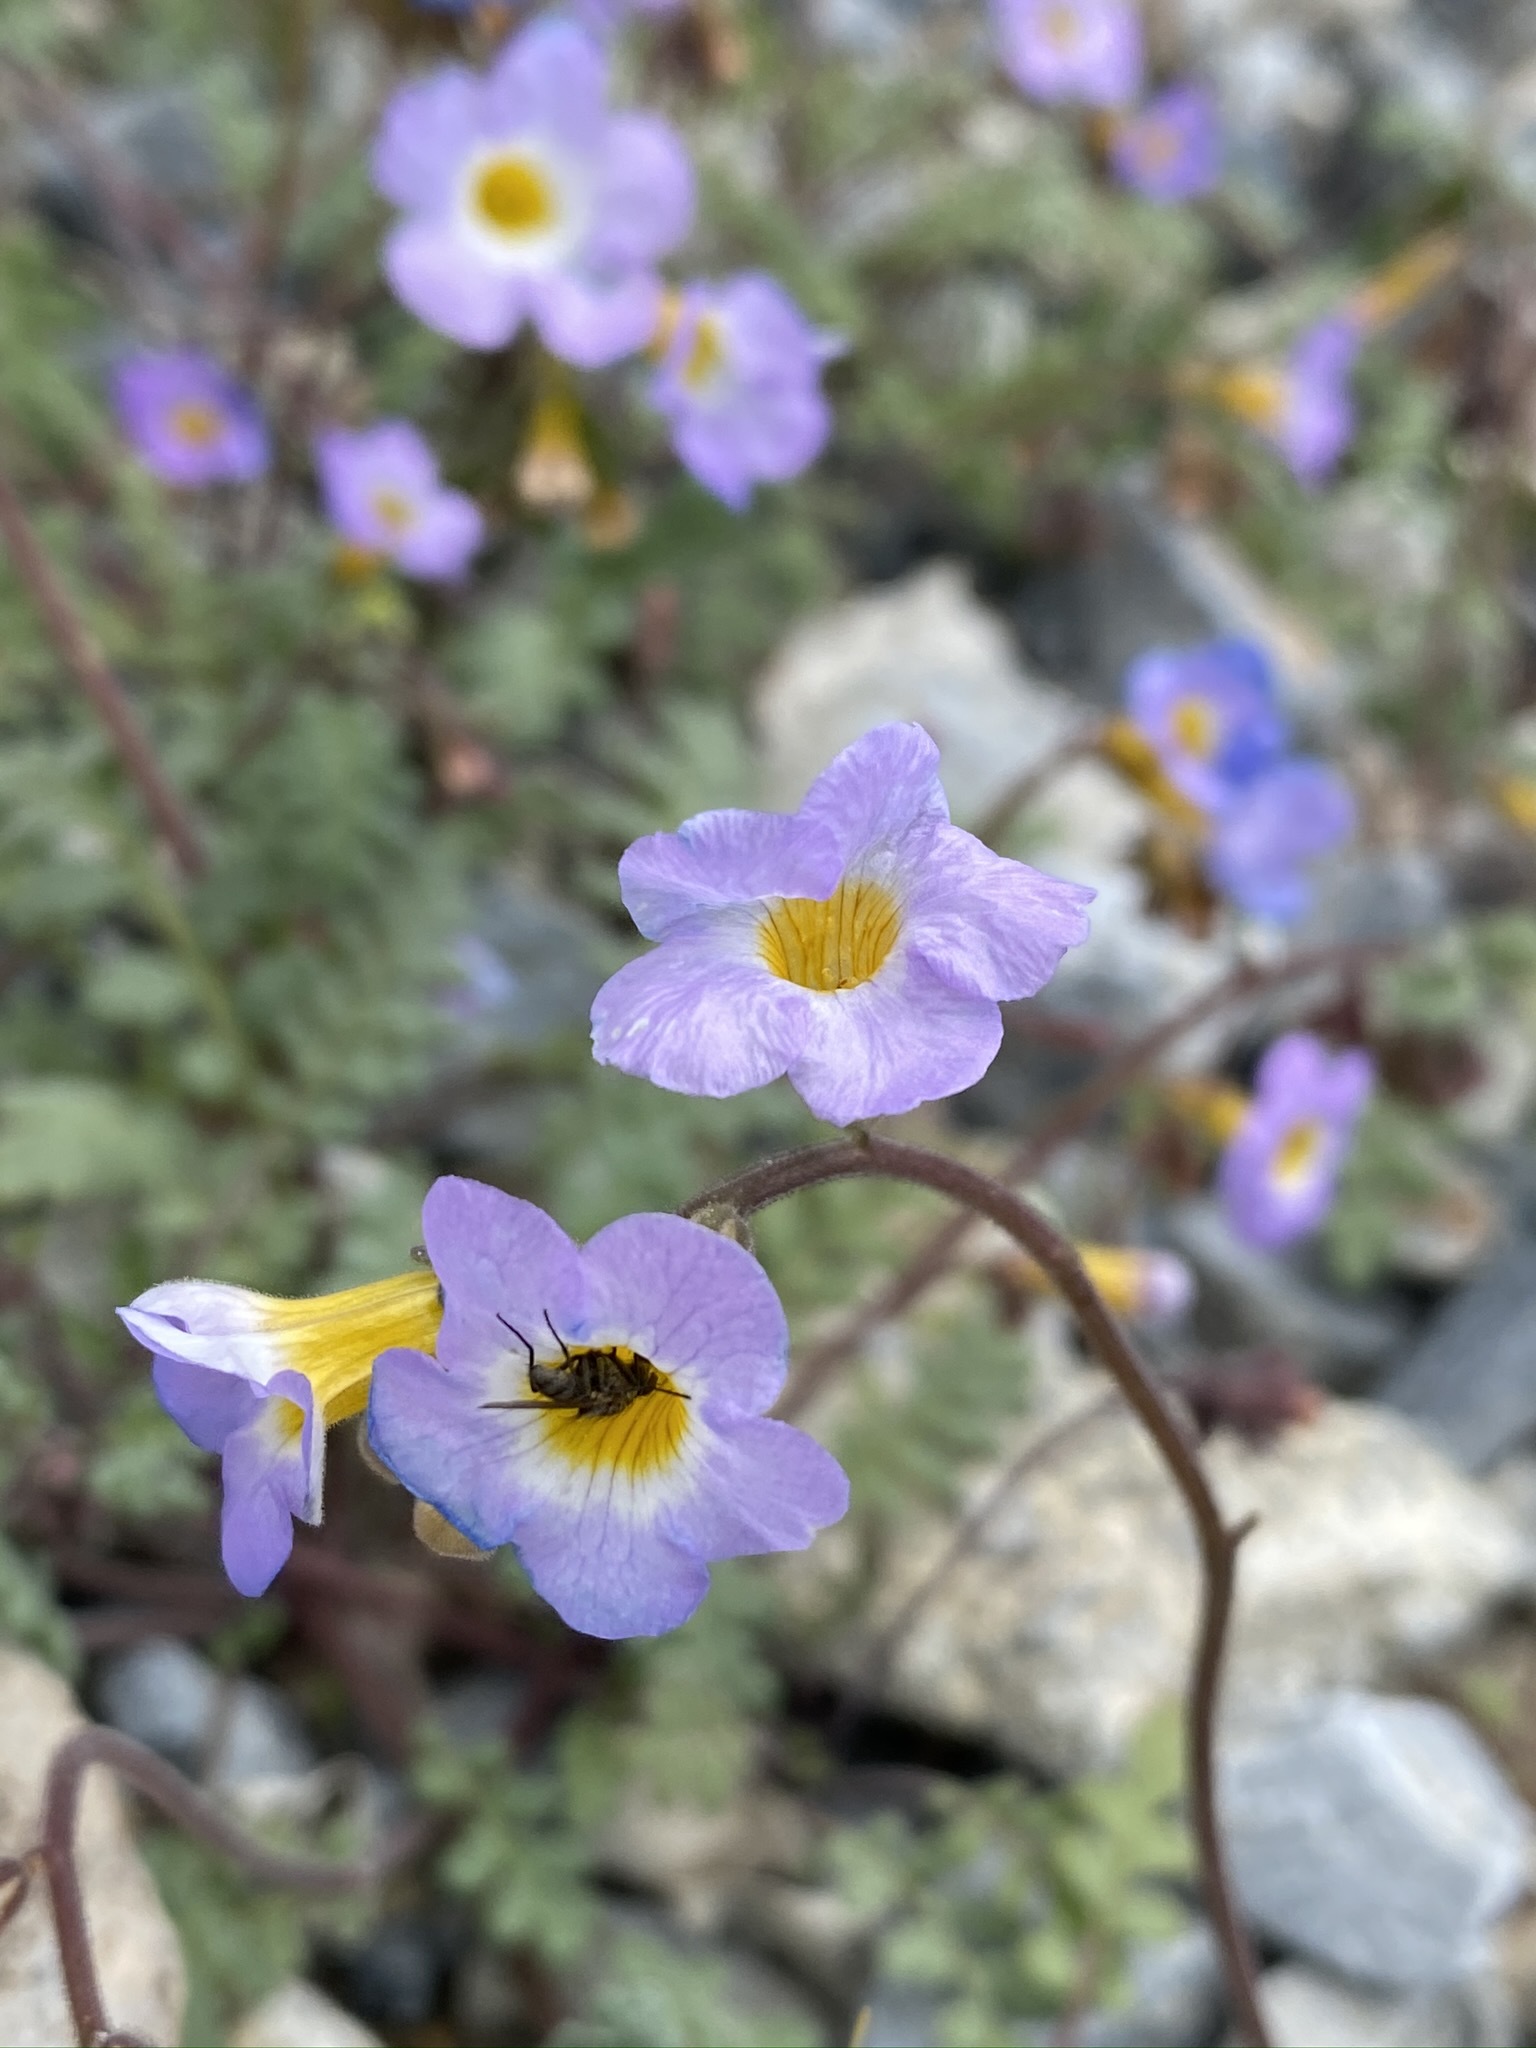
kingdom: Plantae
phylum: Tracheophyta
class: Magnoliopsida
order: Boraginales
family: Hydrophyllaceae
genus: Phacelia
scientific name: Phacelia fremontii
